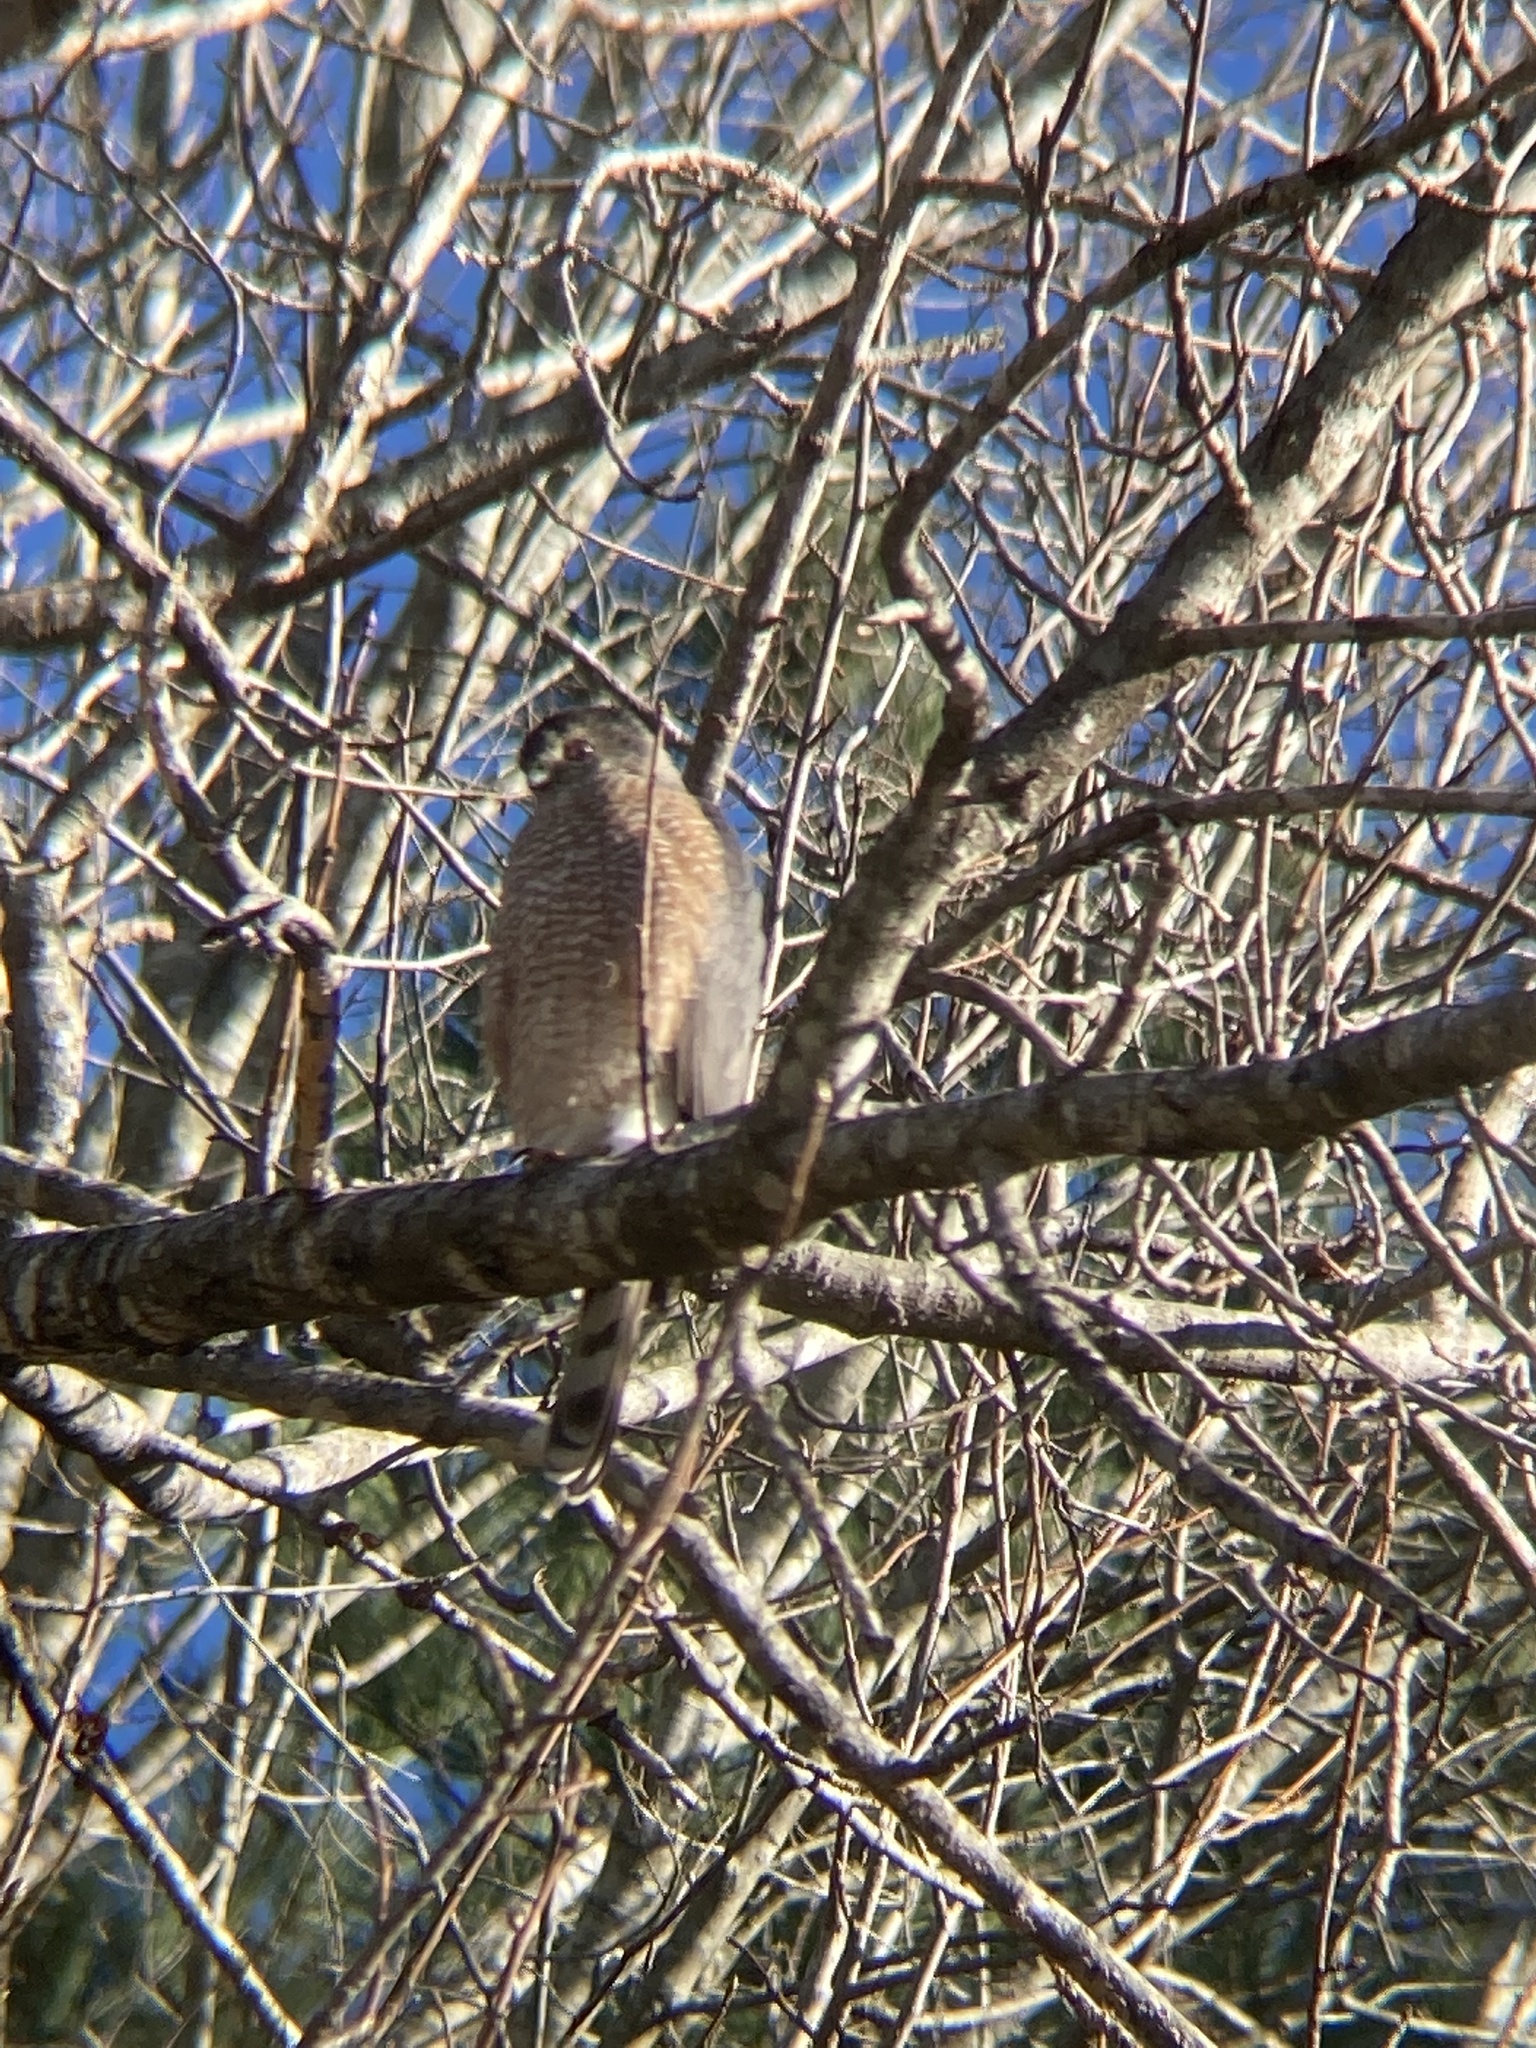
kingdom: Animalia
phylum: Chordata
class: Aves
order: Accipitriformes
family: Accipitridae
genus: Accipiter
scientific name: Accipiter cooperii
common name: Cooper's hawk
